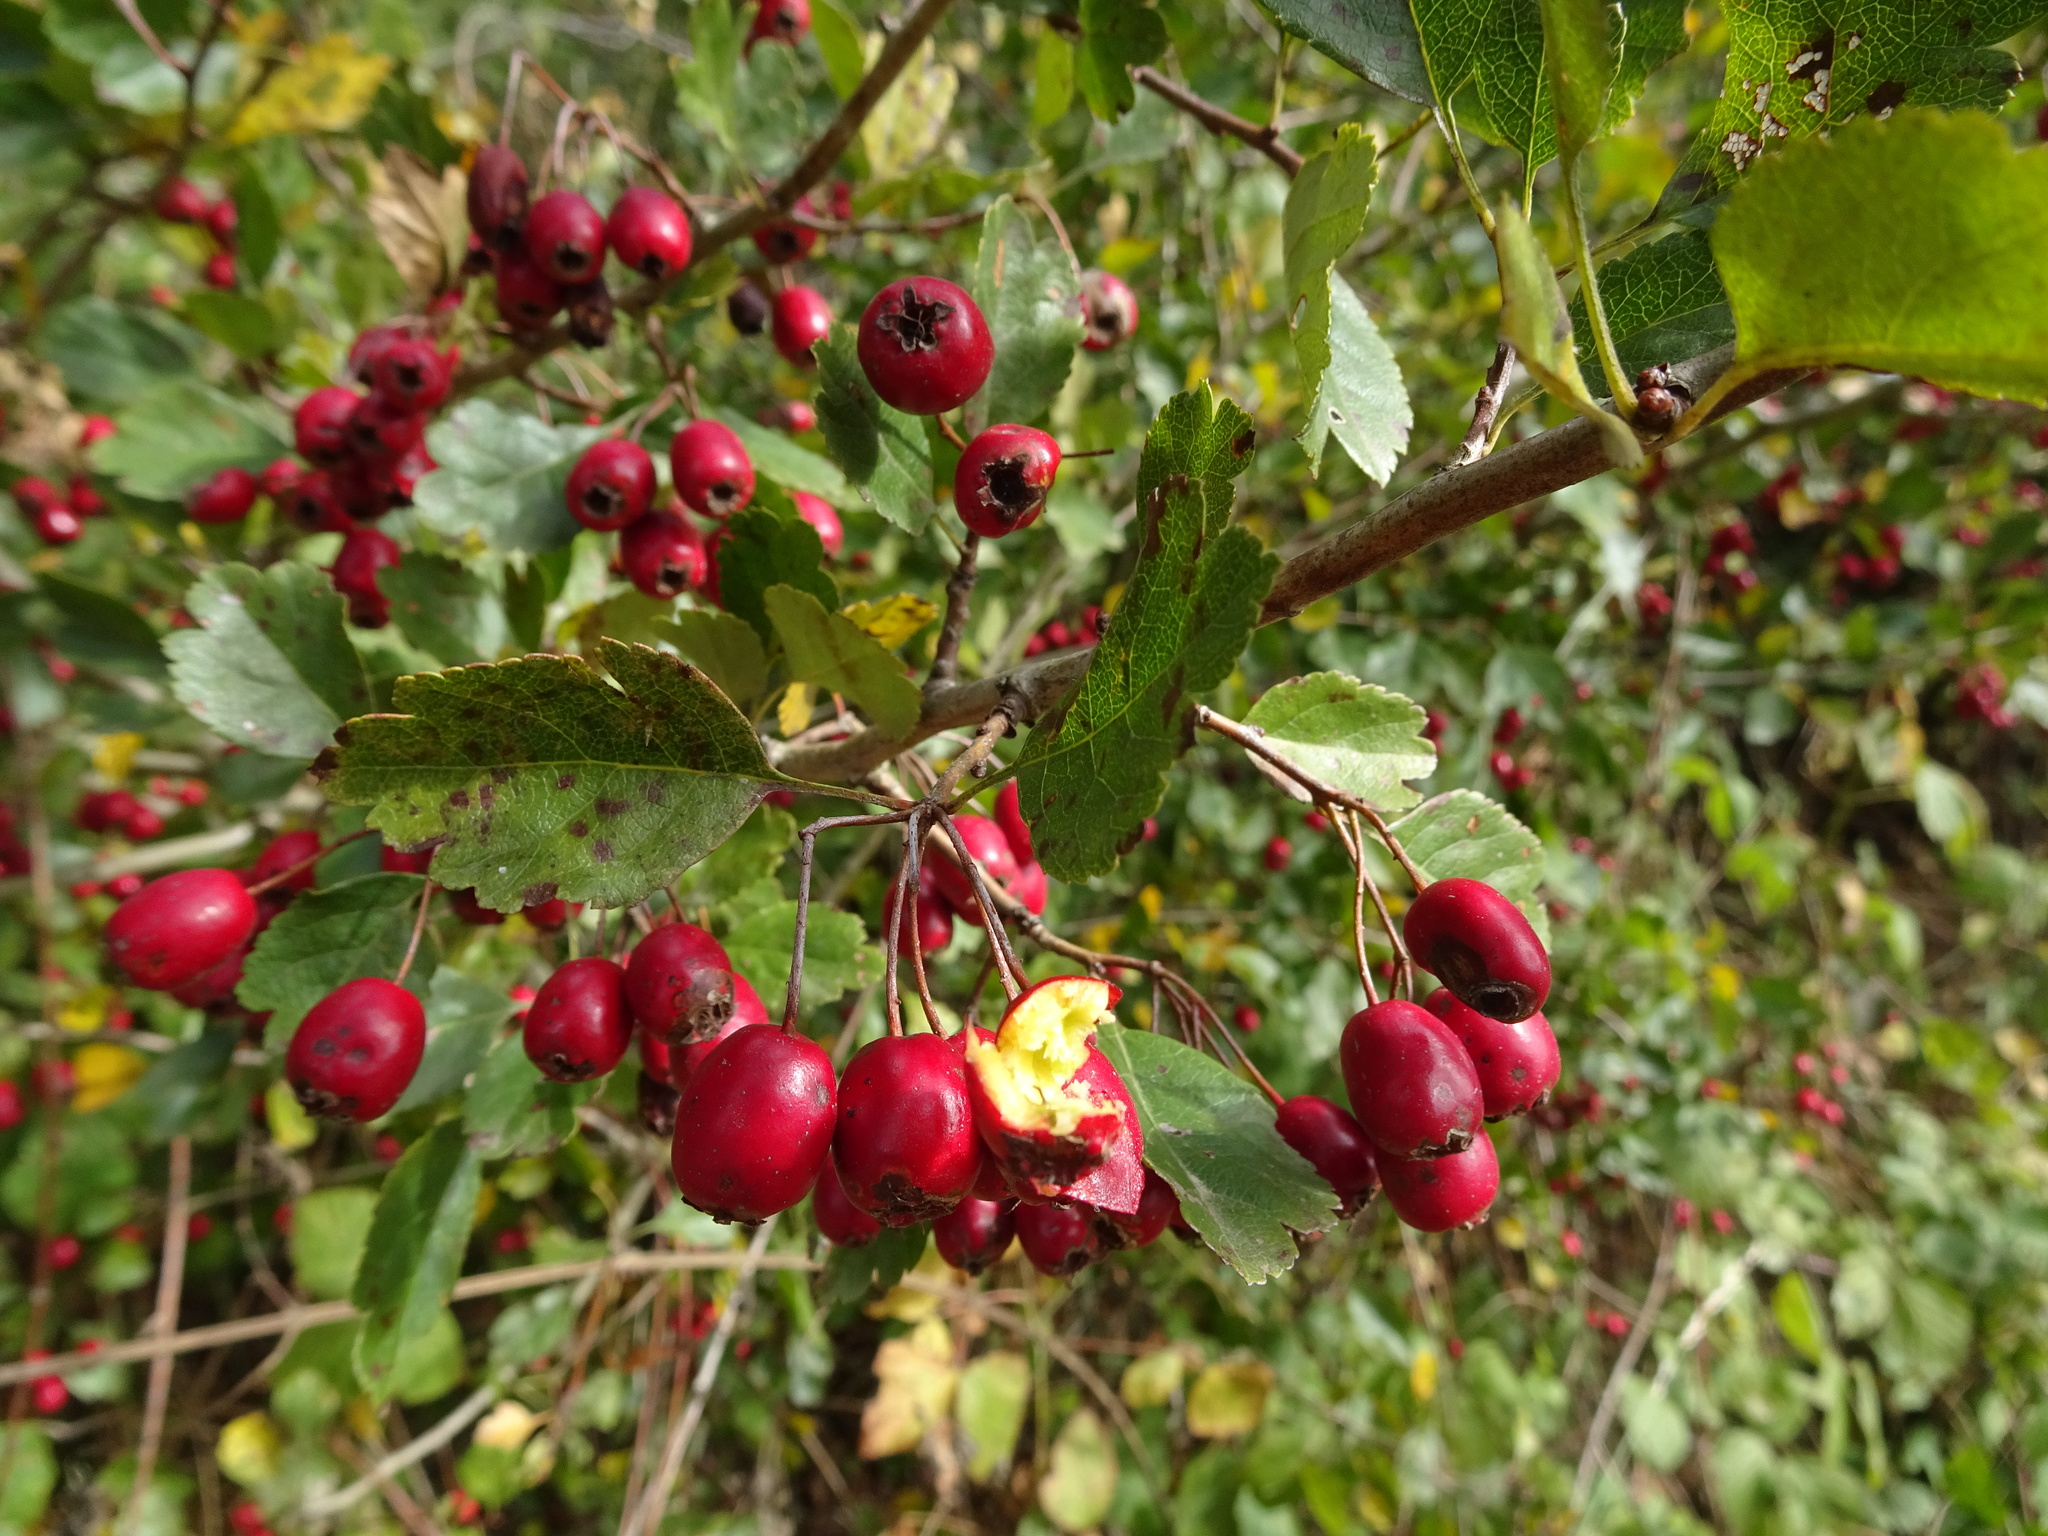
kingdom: Plantae
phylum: Tracheophyta
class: Magnoliopsida
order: Rosales
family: Rosaceae
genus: Crataegus
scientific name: Crataegus monogyna
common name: Hawthorn
